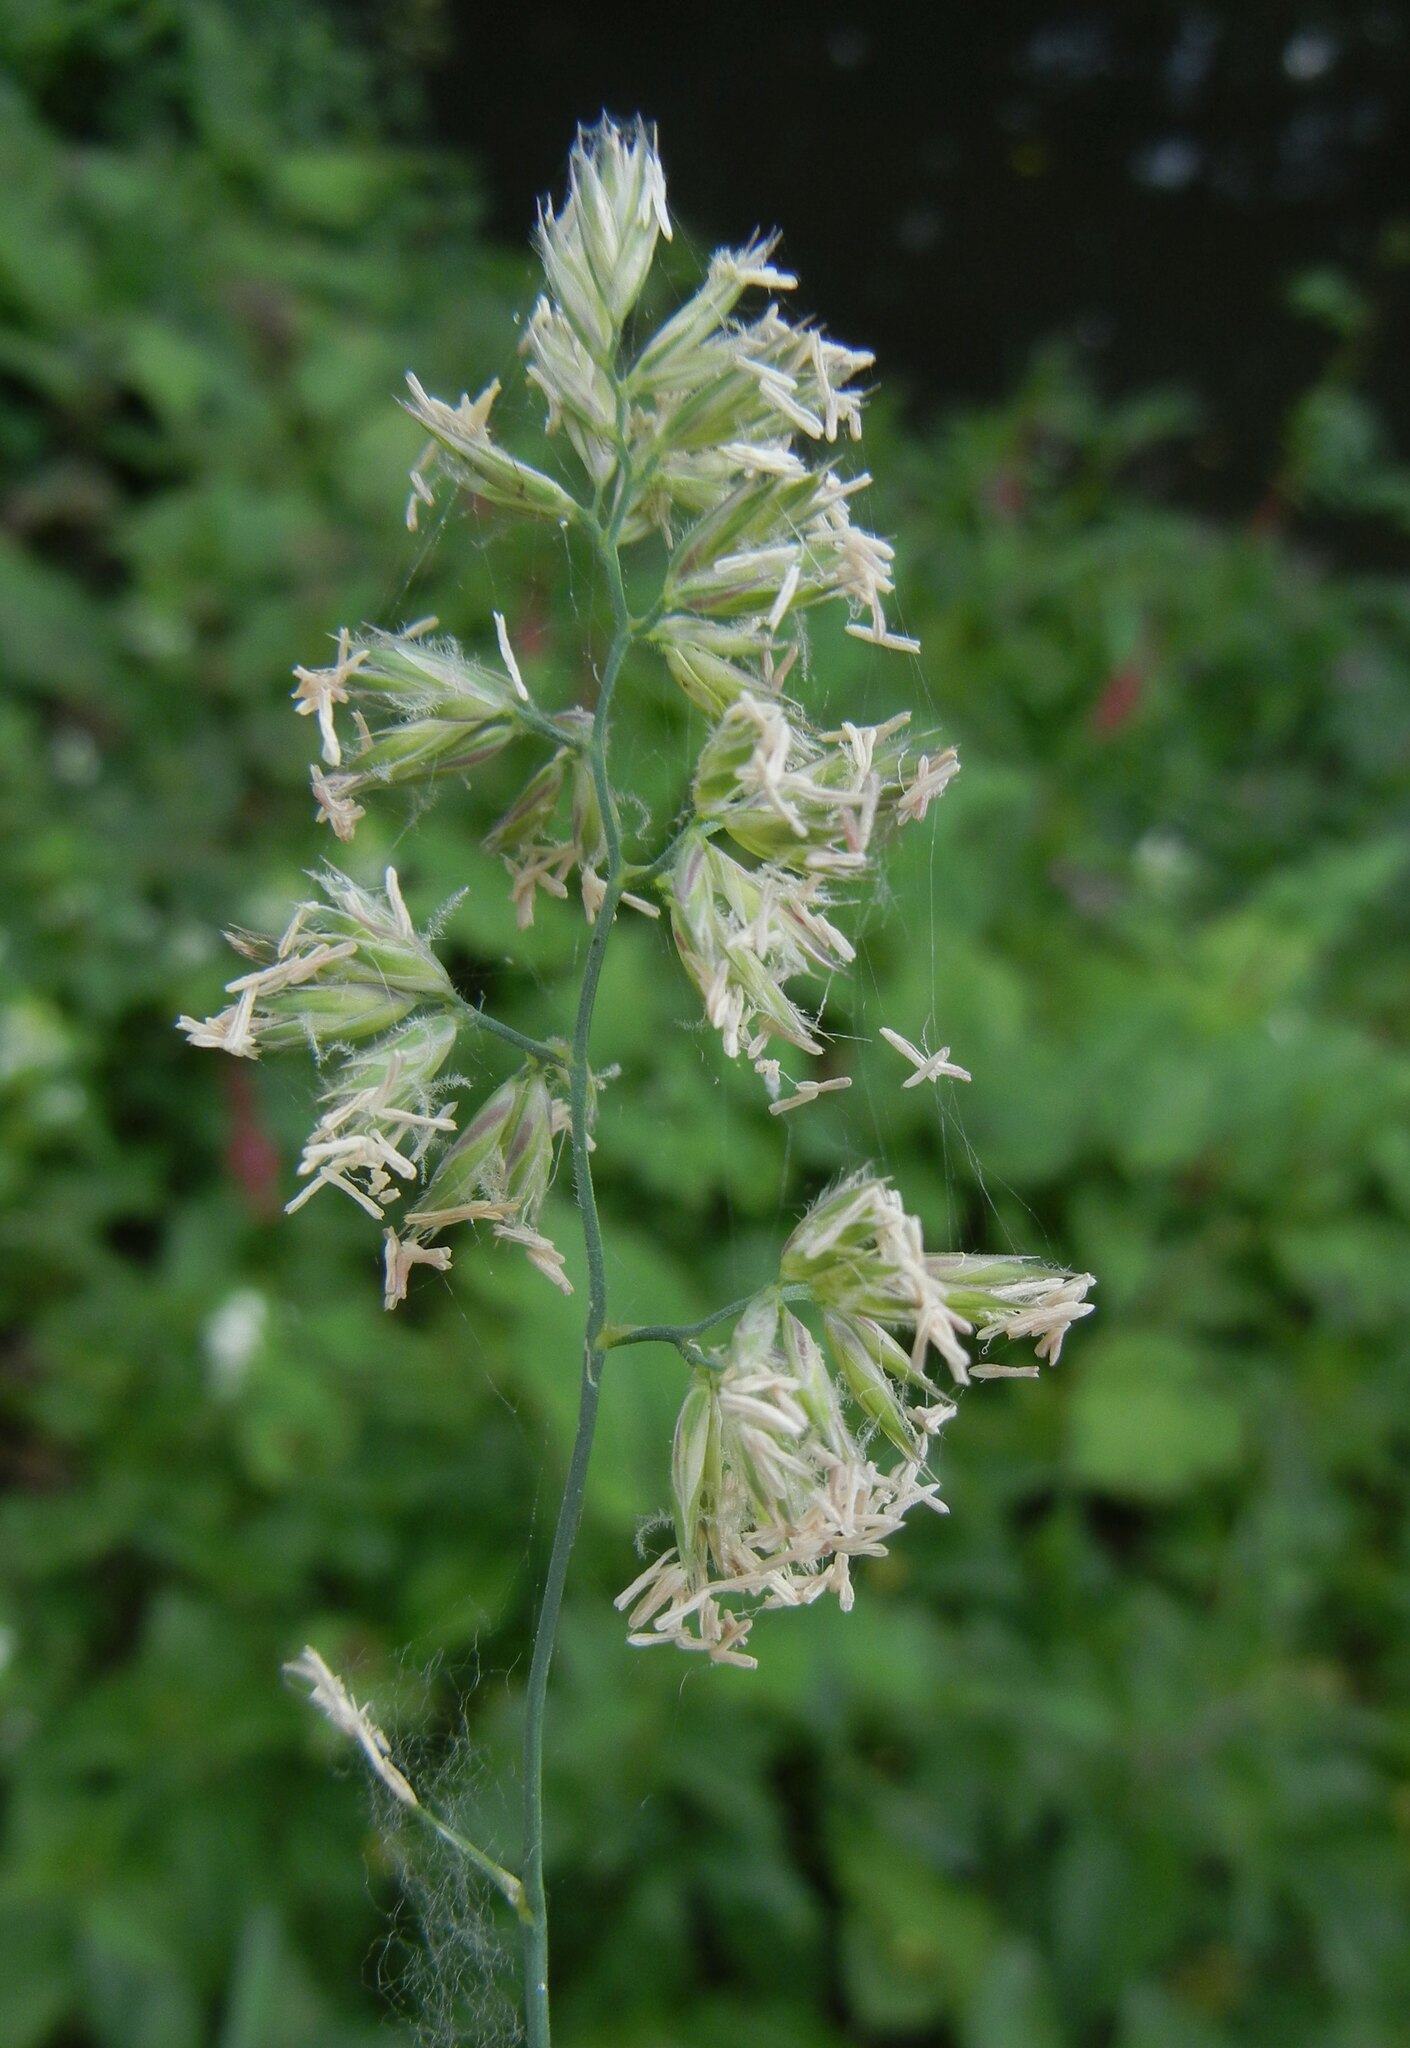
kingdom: Plantae
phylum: Tracheophyta
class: Liliopsida
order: Poales
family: Poaceae
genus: Dactylis
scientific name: Dactylis glomerata
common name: Orchardgrass
